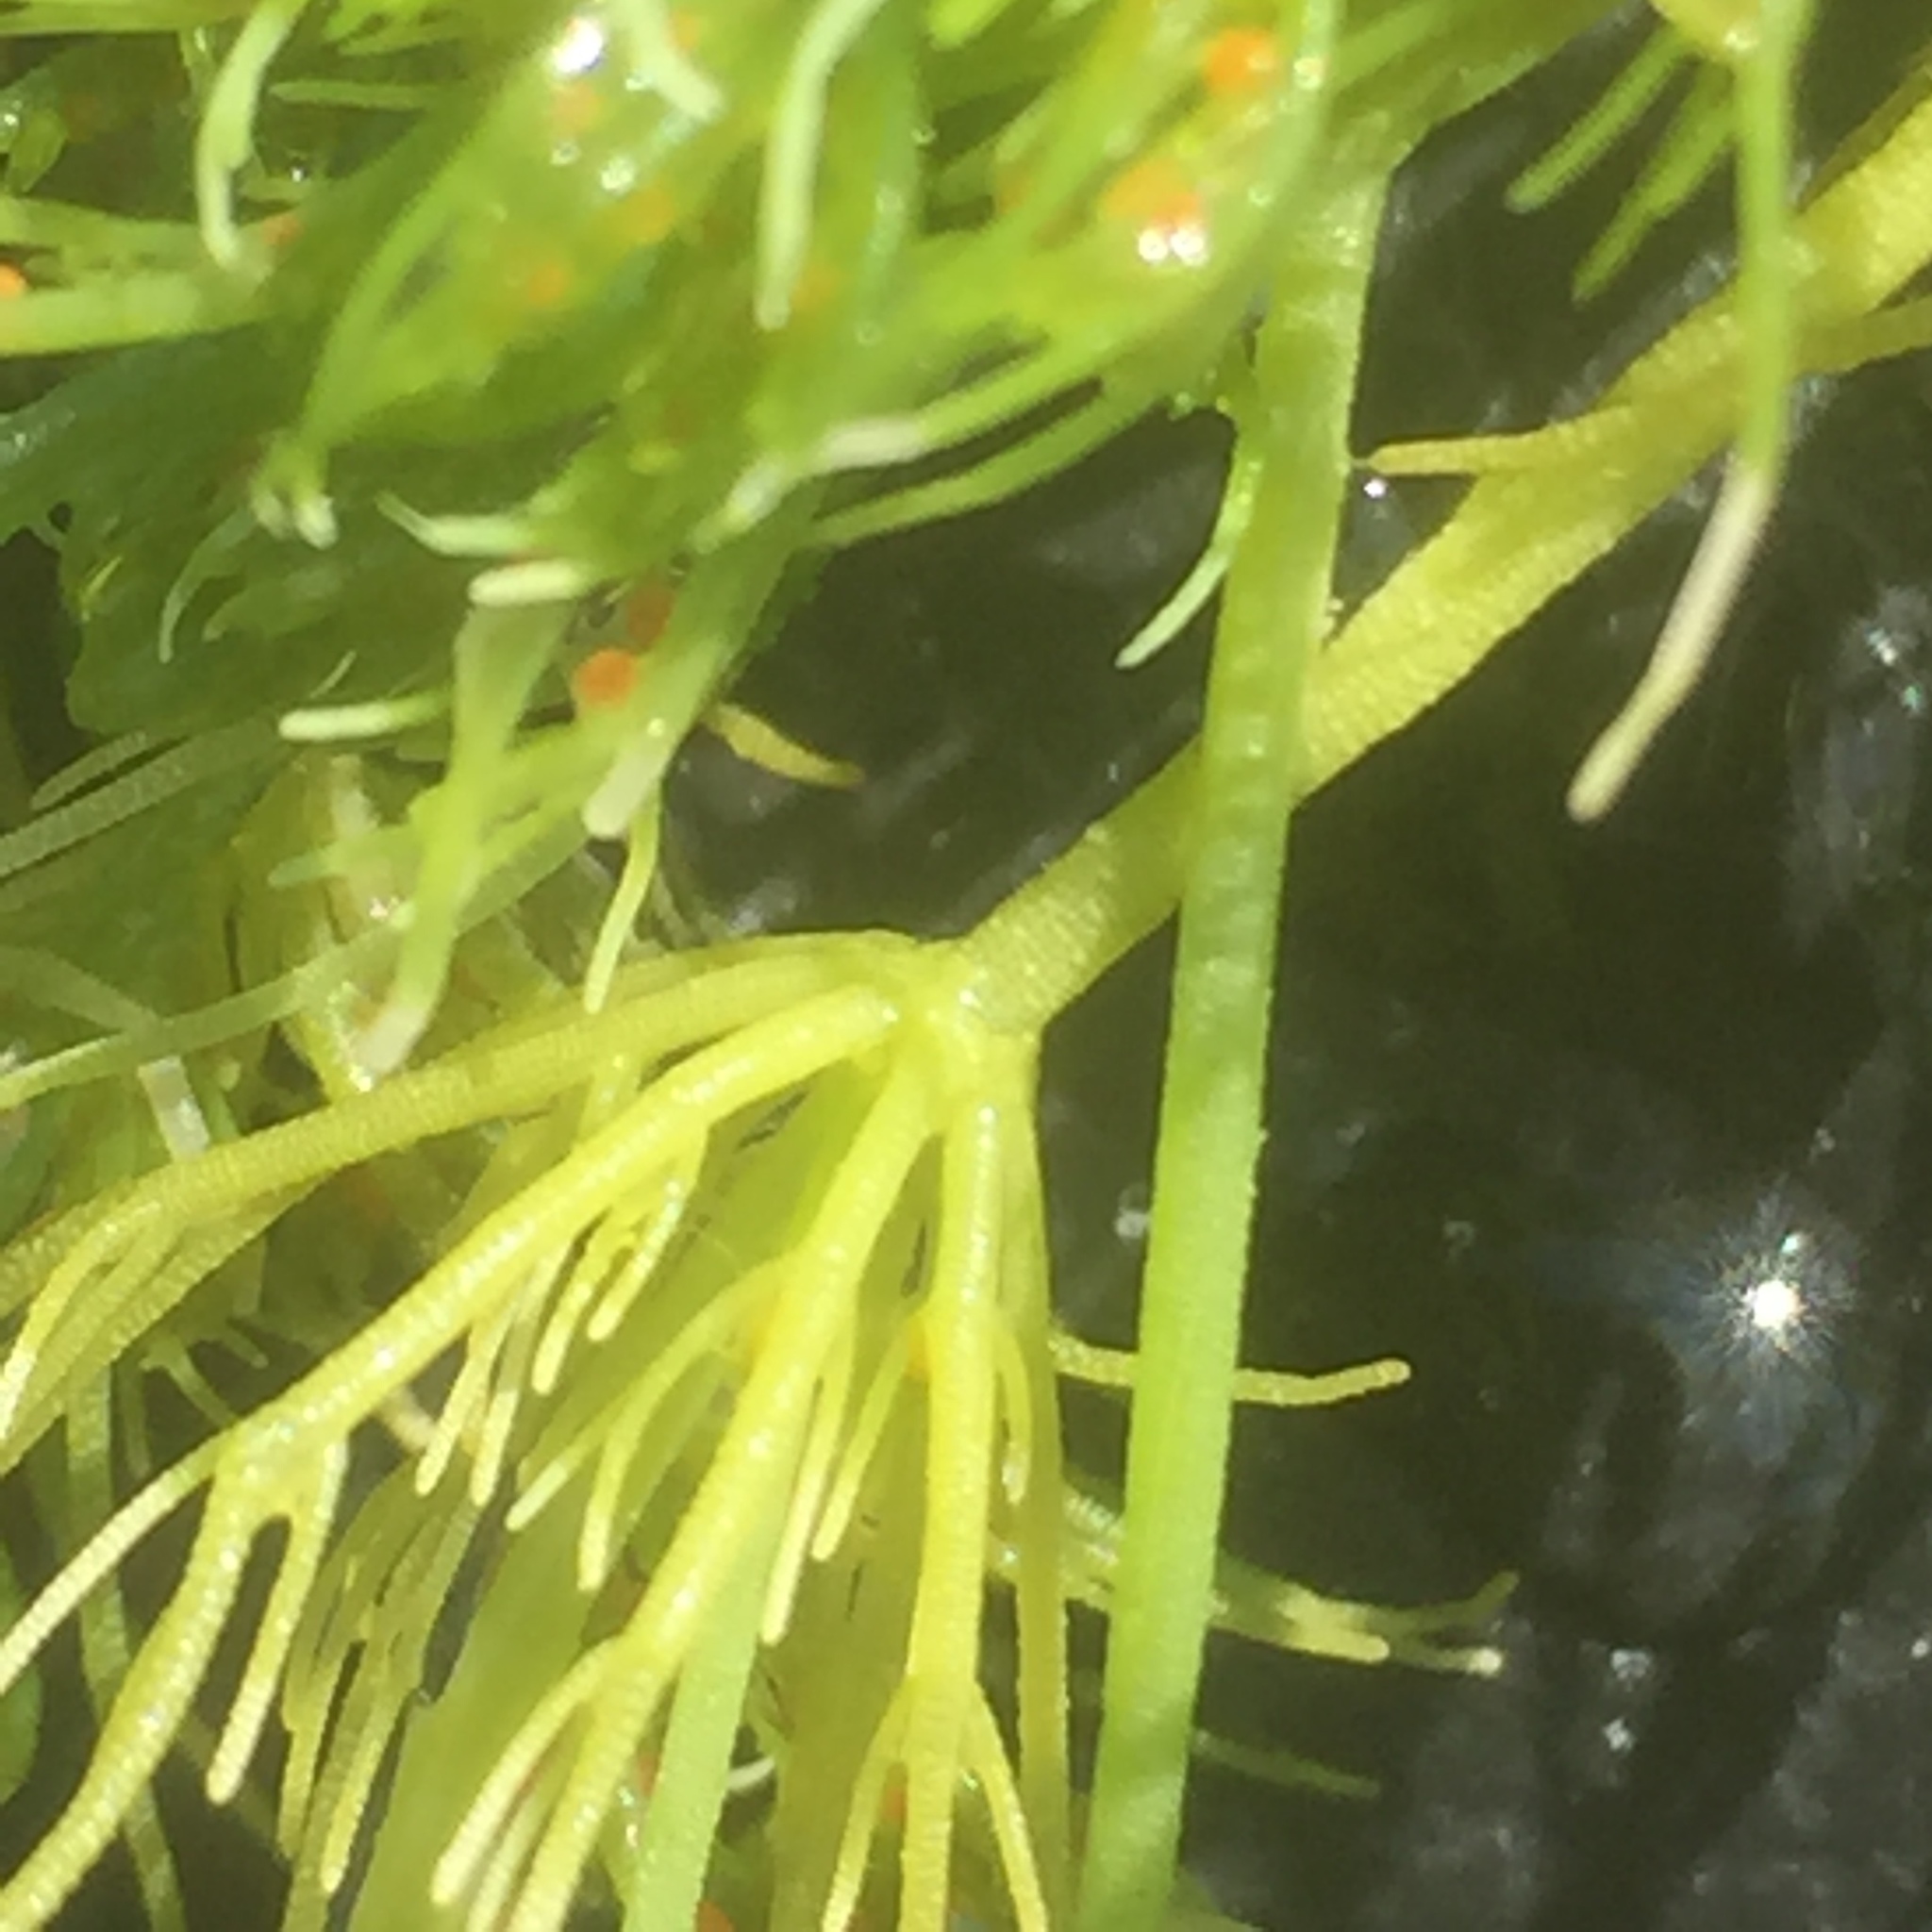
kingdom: Plantae
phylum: Charophyta
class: Charophyceae
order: Charales
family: Characeae
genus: Chara
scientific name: Chara vulgaris
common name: Common stonewort
